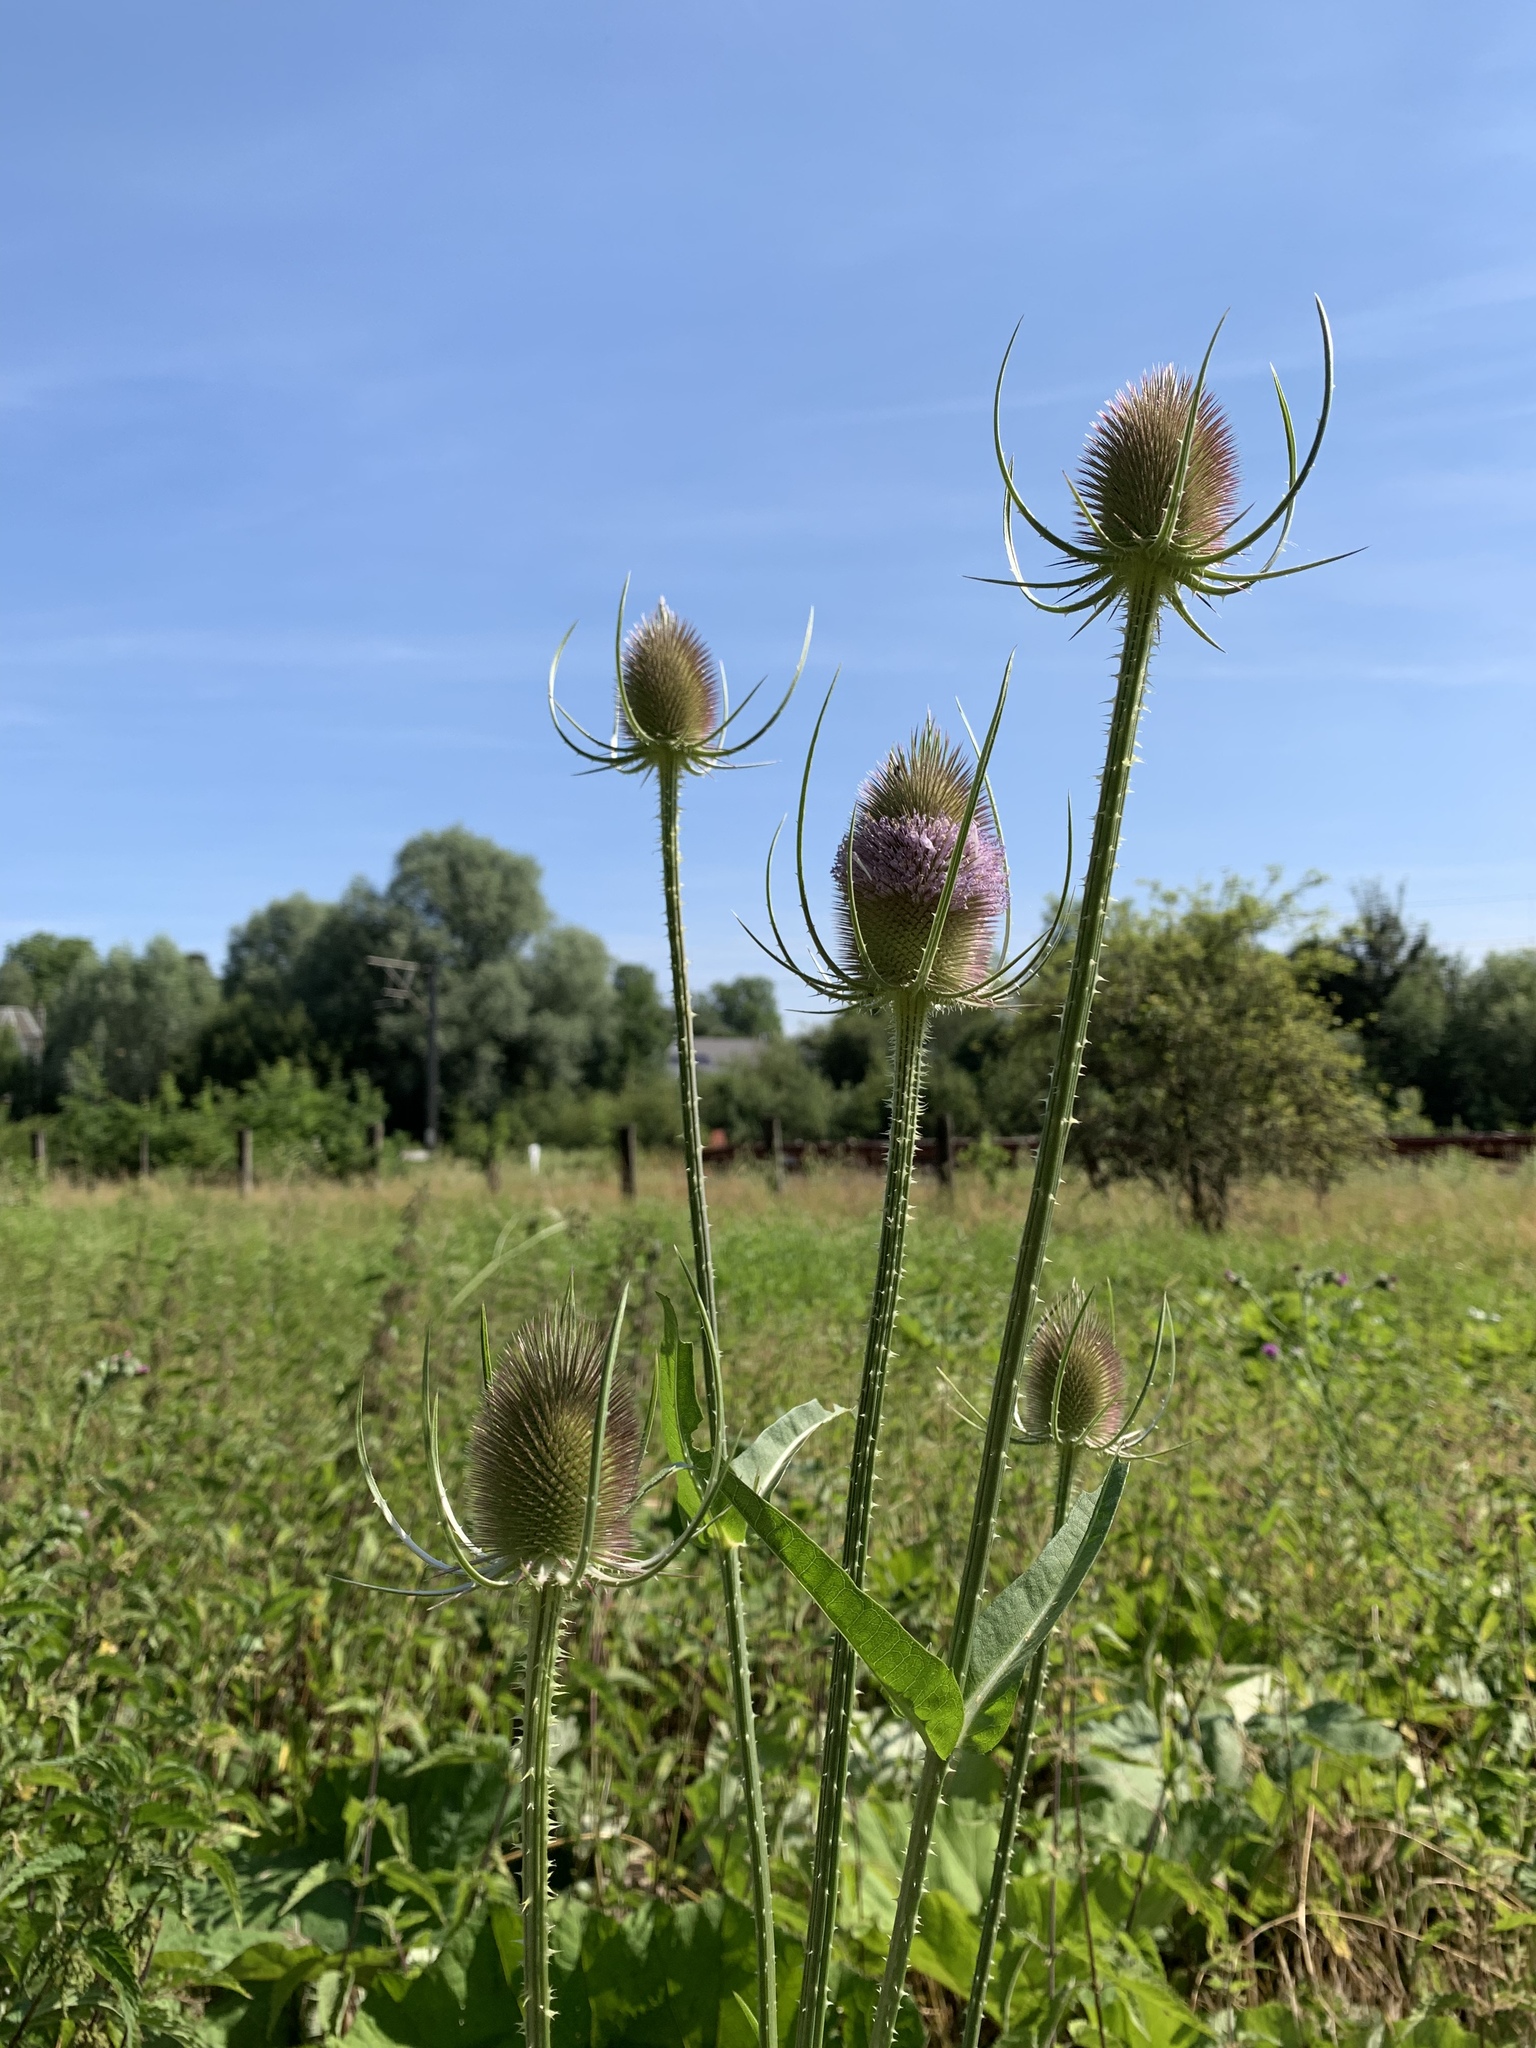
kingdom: Plantae
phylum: Tracheophyta
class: Magnoliopsida
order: Dipsacales
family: Caprifoliaceae
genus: Dipsacus
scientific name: Dipsacus fullonum
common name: Teasel
